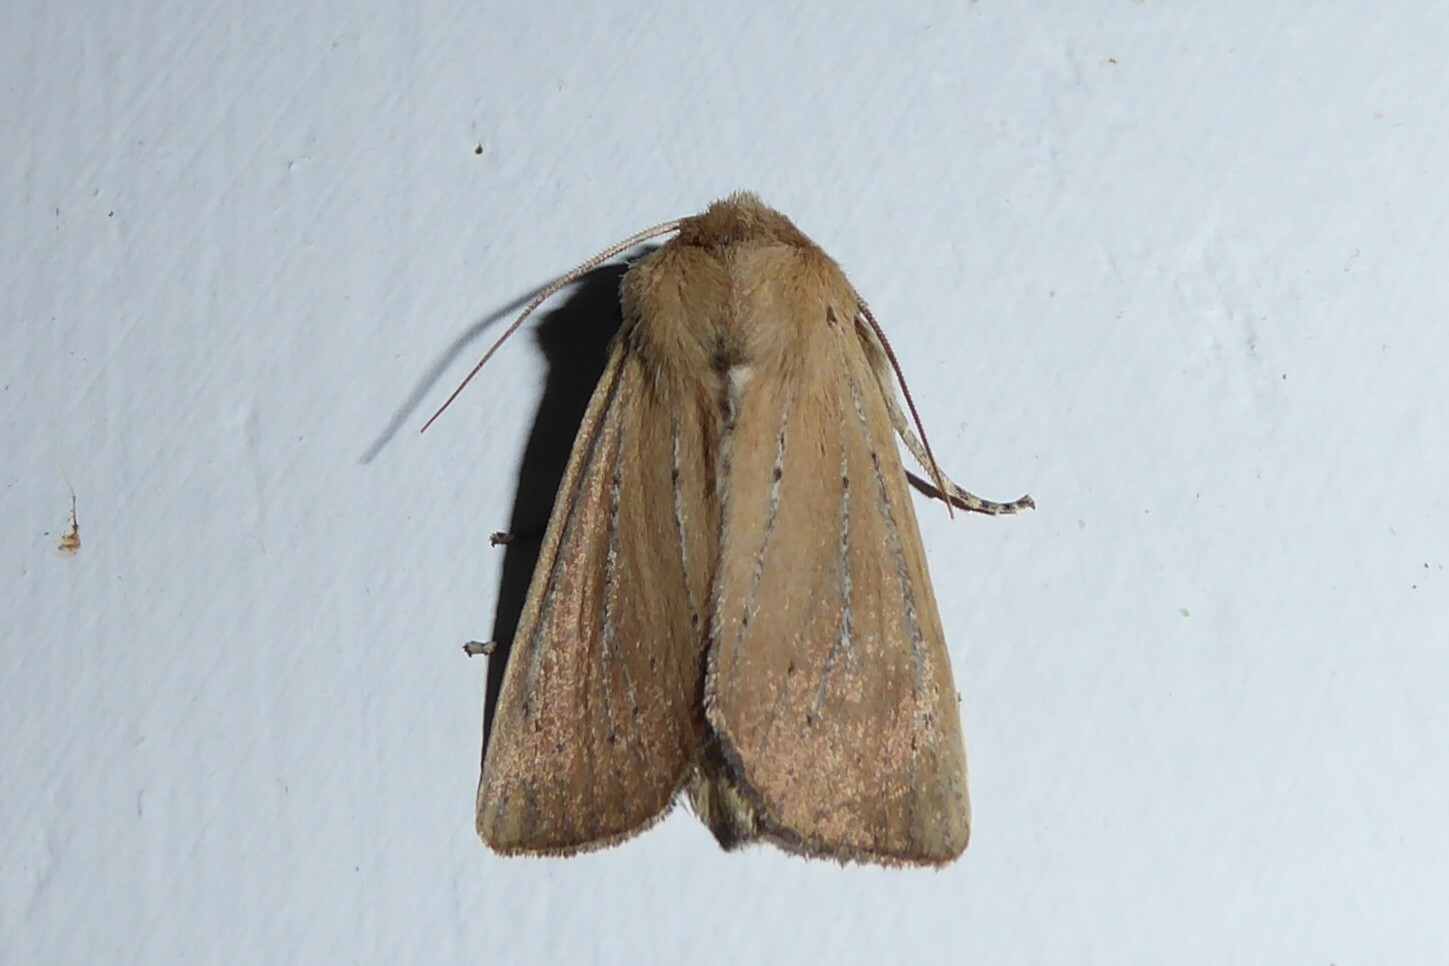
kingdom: Animalia
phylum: Arthropoda
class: Insecta
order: Lepidoptera
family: Noctuidae
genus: Ichneutica
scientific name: Ichneutica blenheimensis
